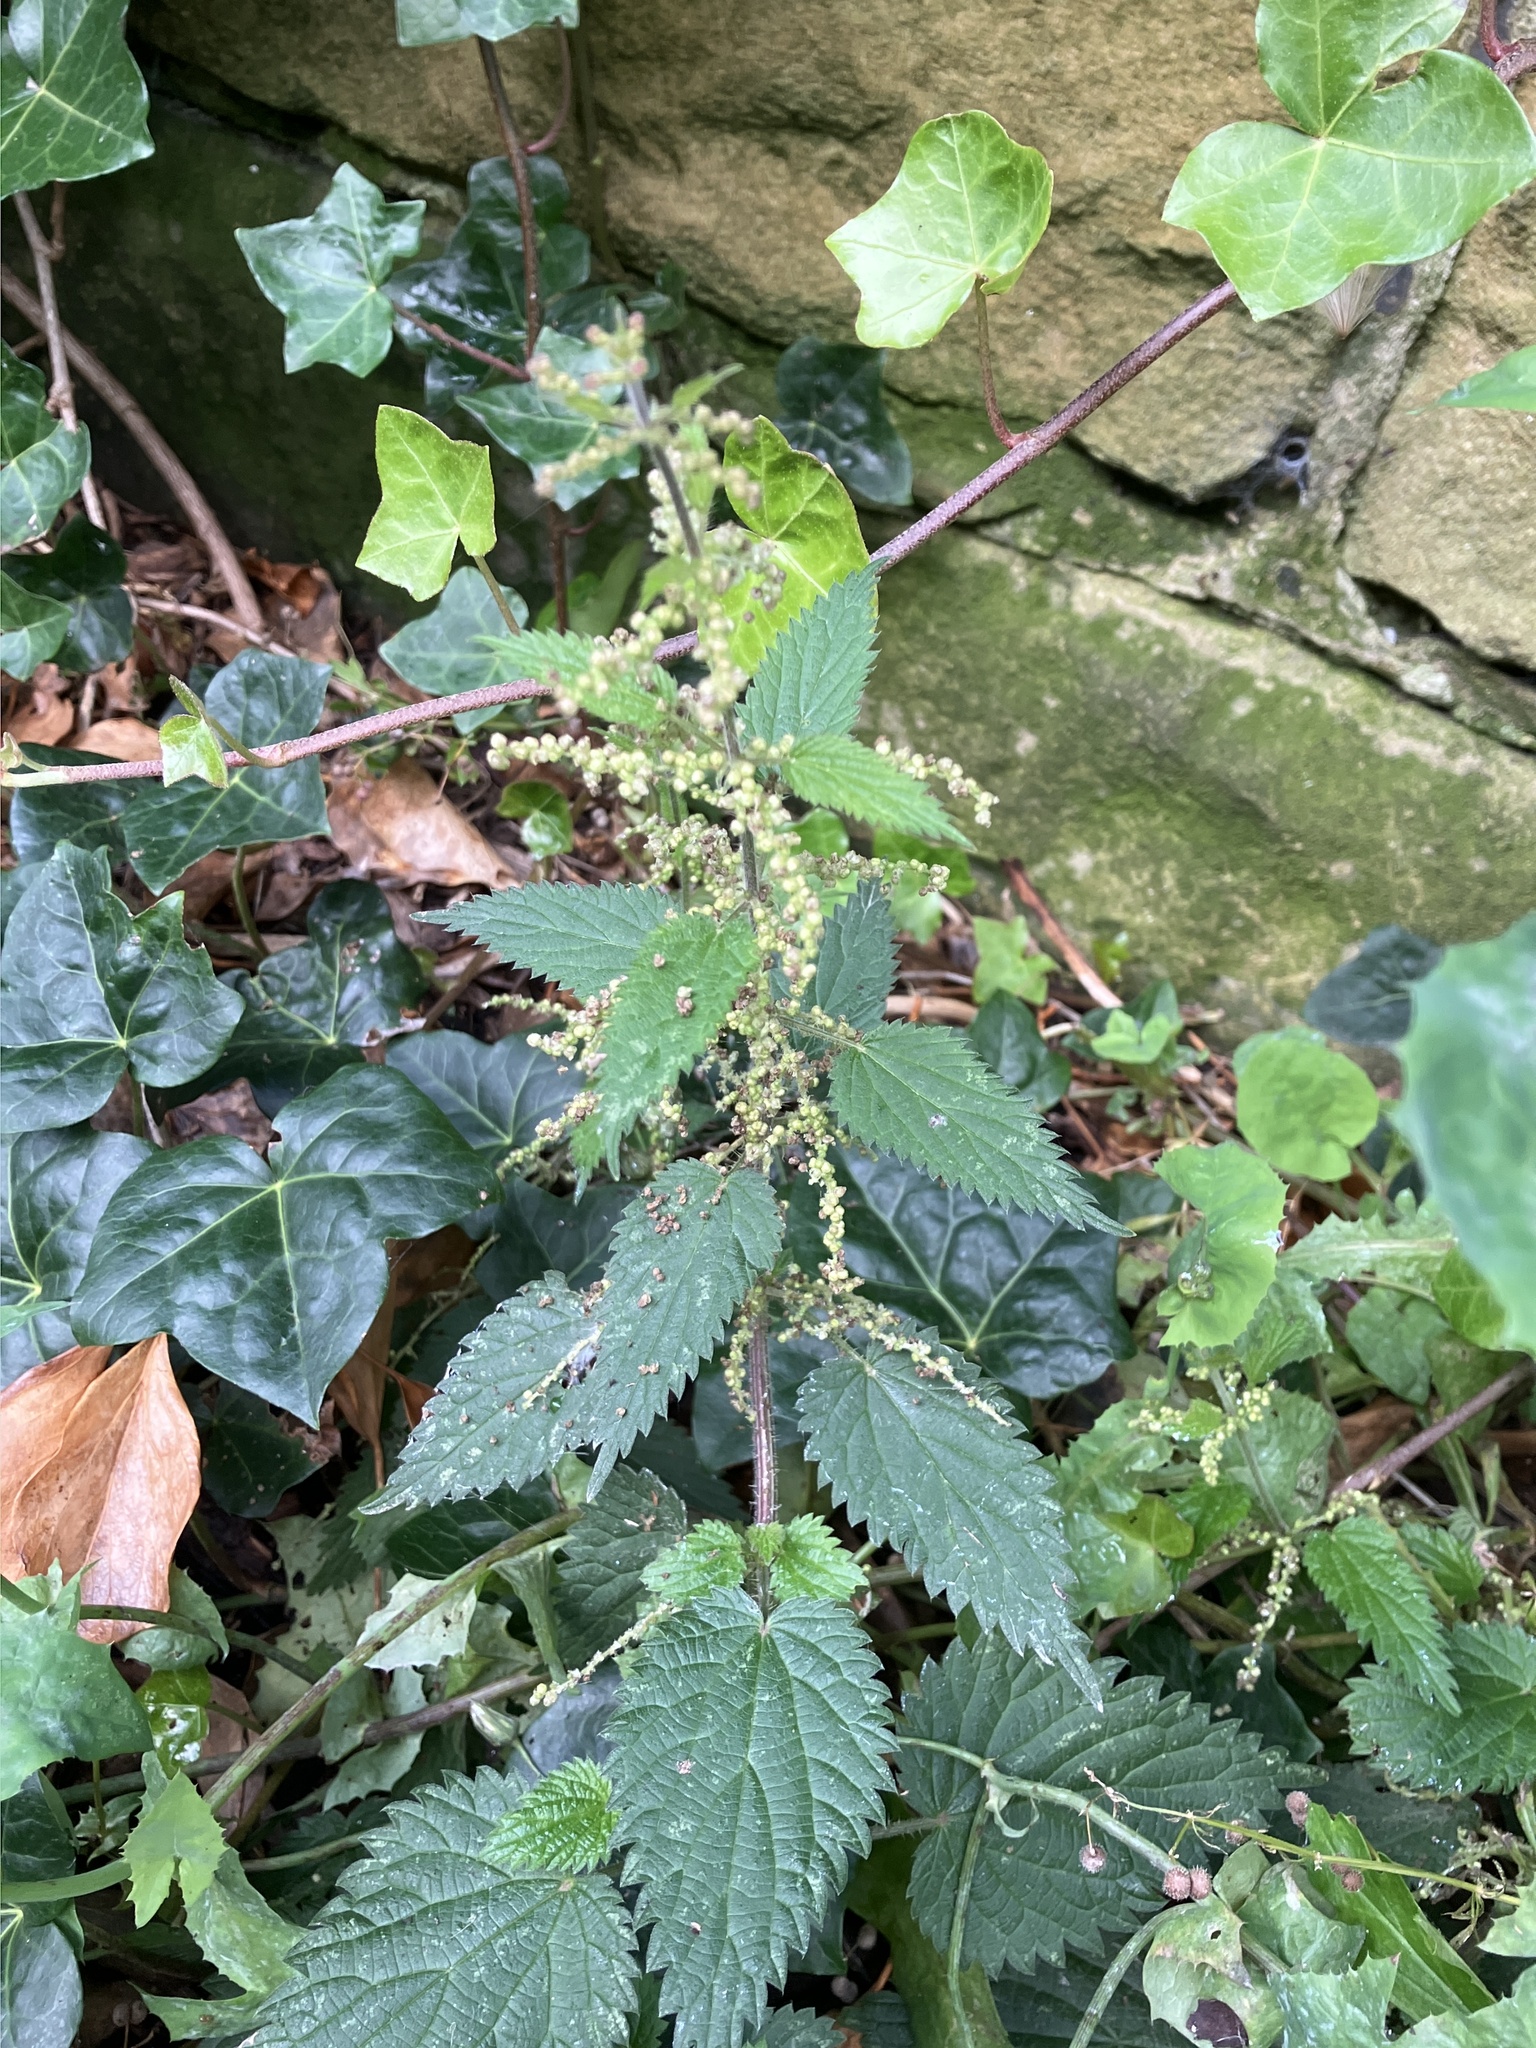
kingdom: Plantae
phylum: Tracheophyta
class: Magnoliopsida
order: Rosales
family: Urticaceae
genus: Urtica
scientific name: Urtica dioica
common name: Common nettle
